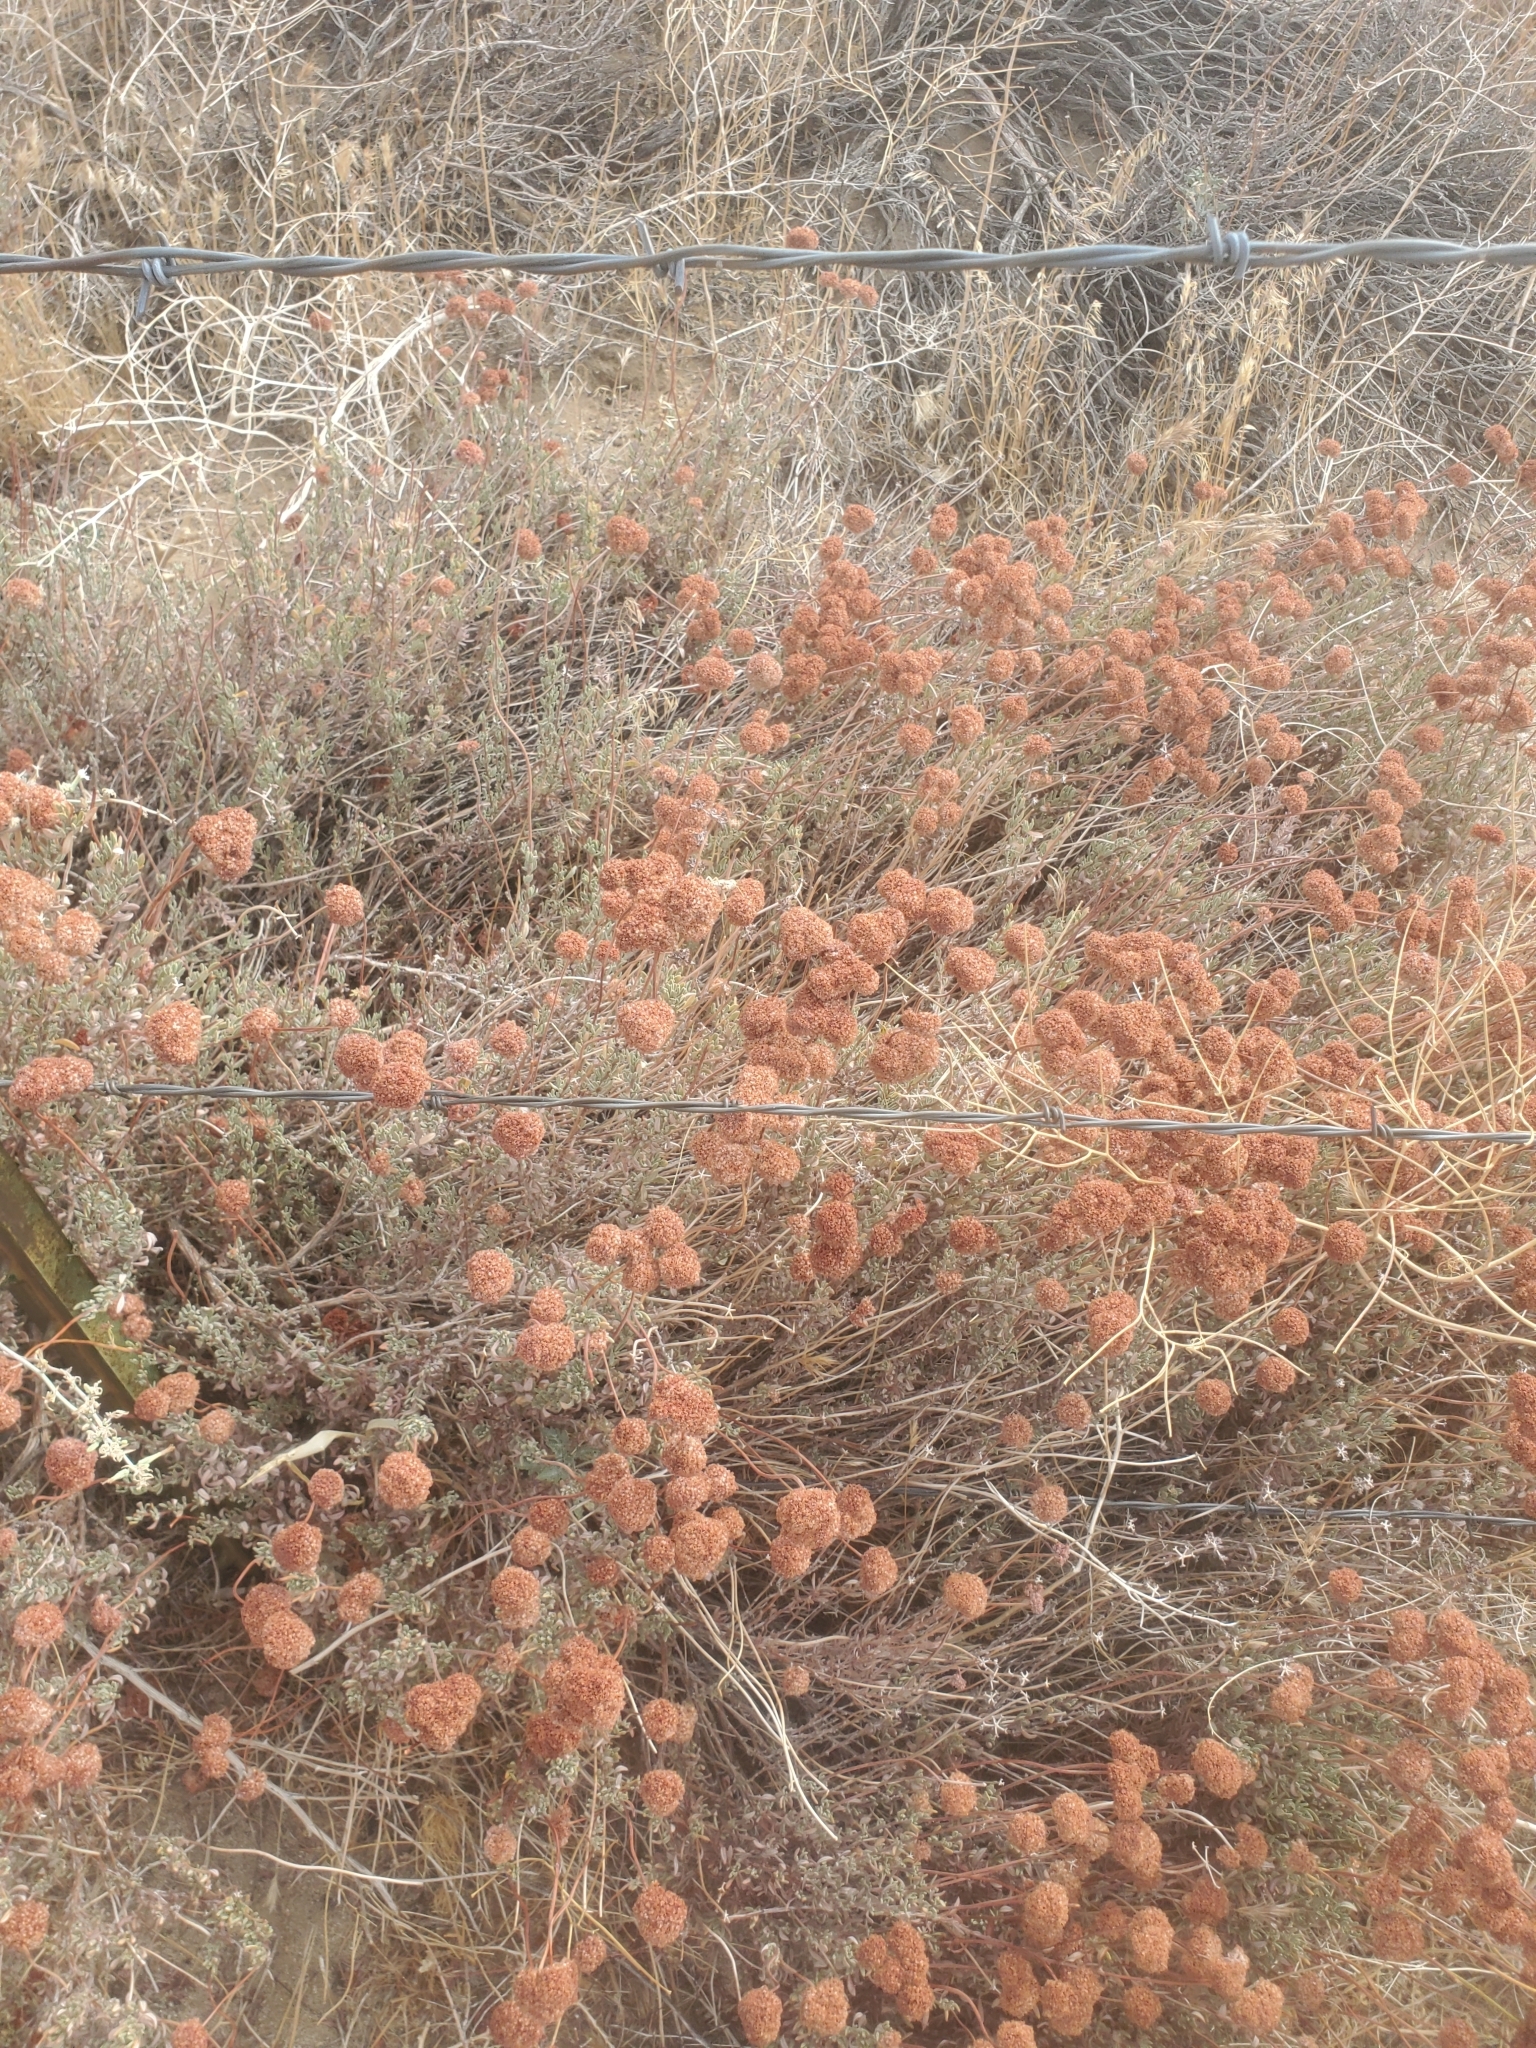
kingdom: Plantae
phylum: Tracheophyta
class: Magnoliopsida
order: Caryophyllales
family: Polygonaceae
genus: Eriogonum
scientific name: Eriogonum fasciculatum
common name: California wild buckwheat
